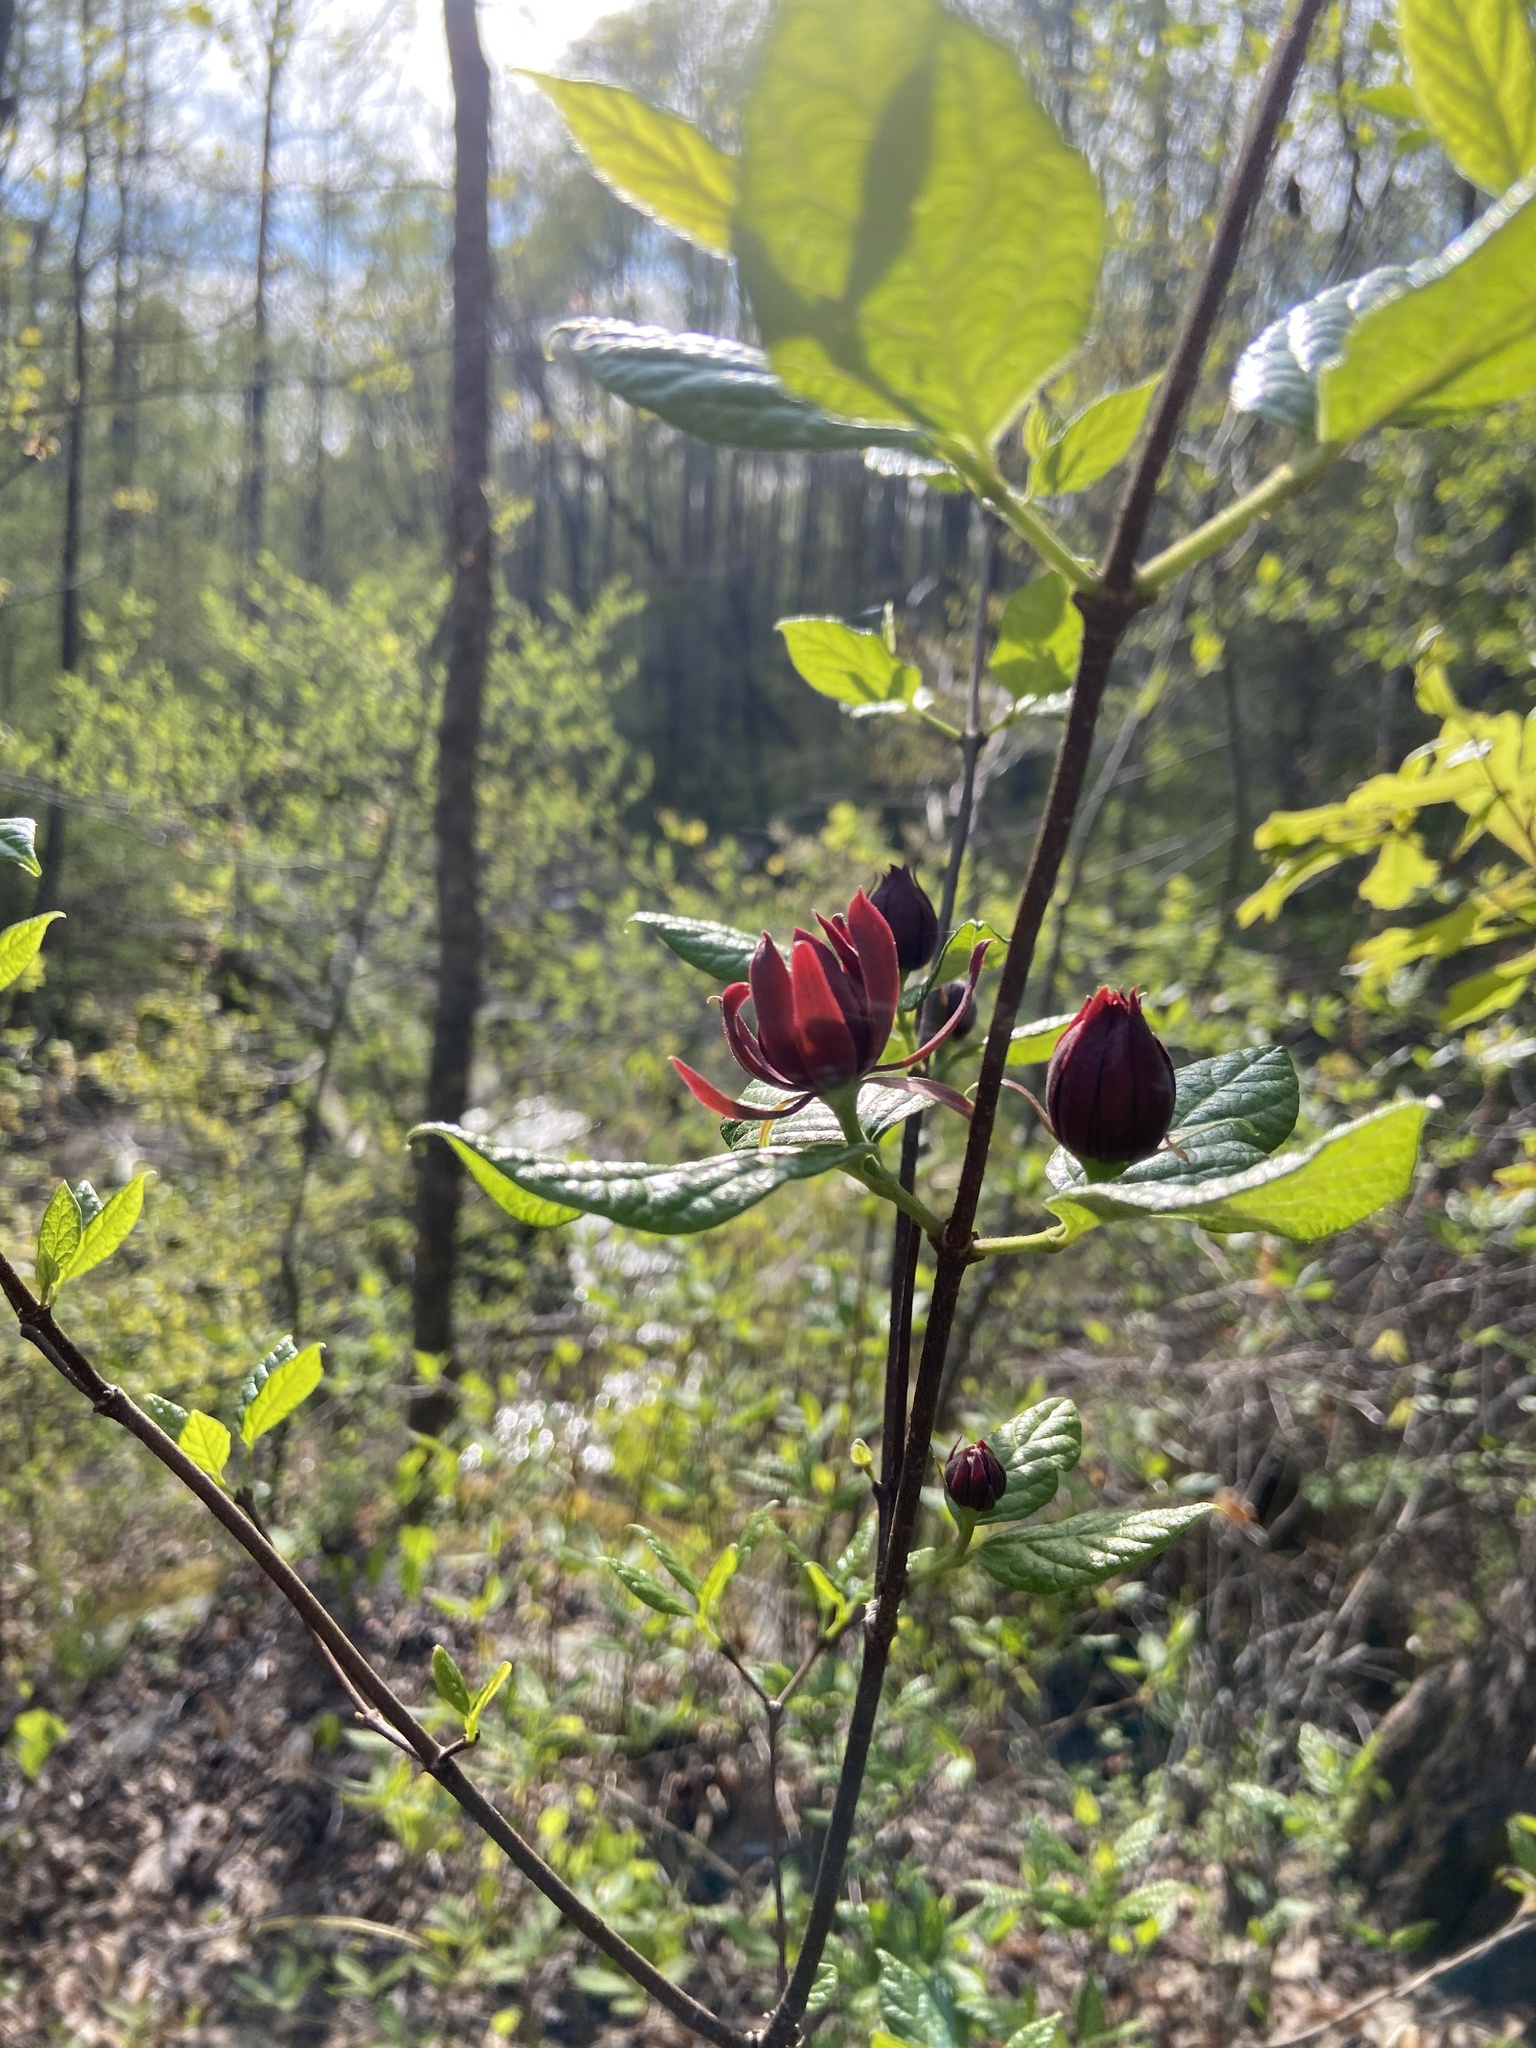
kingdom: Plantae
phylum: Tracheophyta
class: Magnoliopsida
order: Laurales
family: Calycanthaceae
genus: Calycanthus
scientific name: Calycanthus floridus
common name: Carolina-allspice
